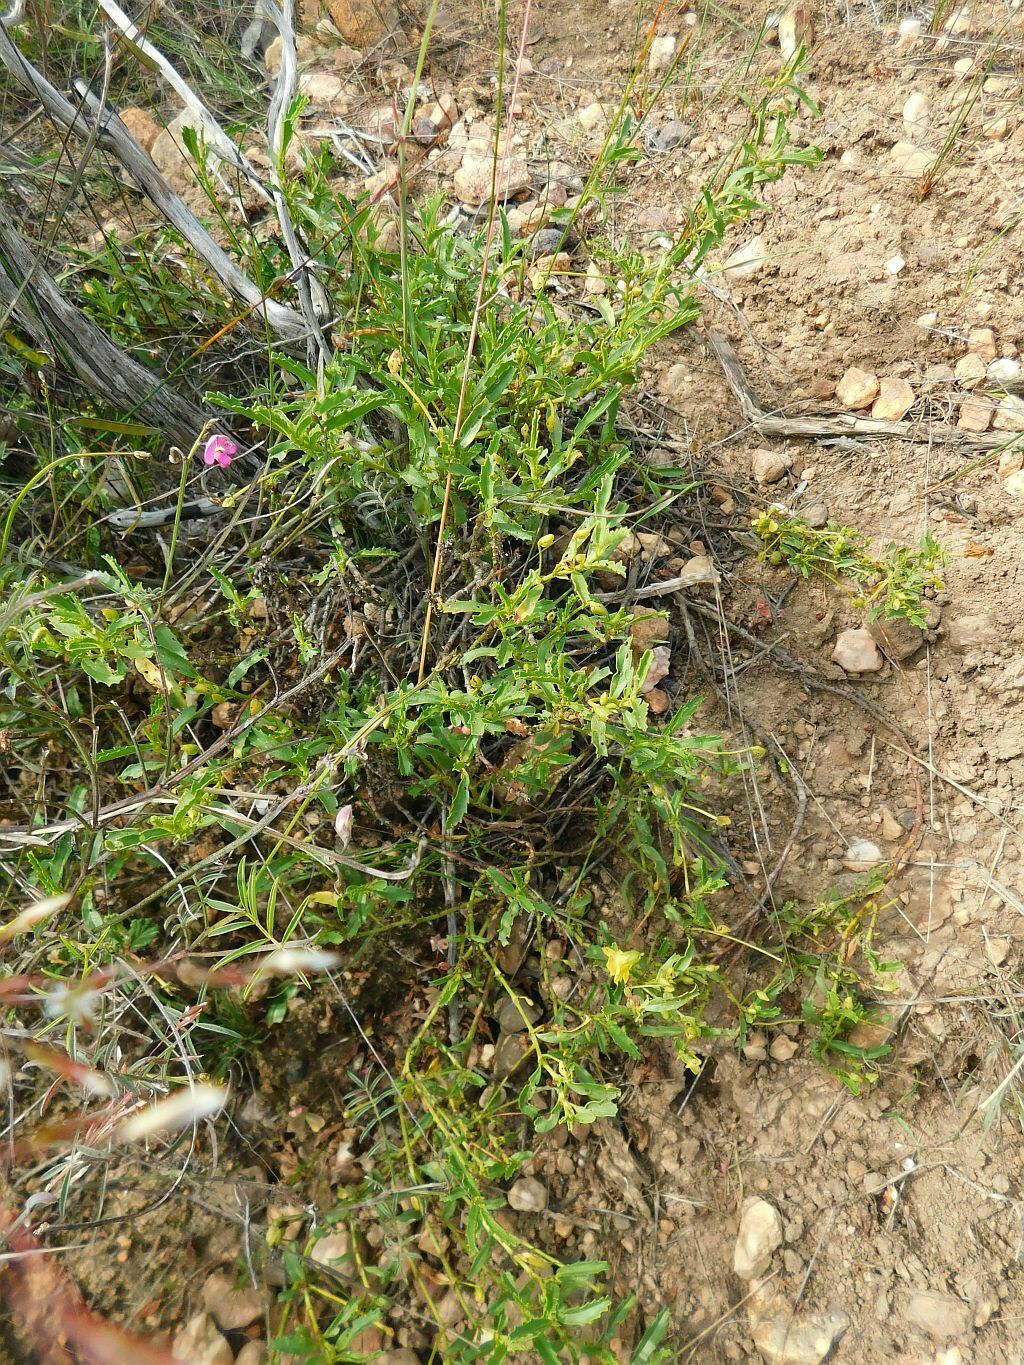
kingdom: Plantae
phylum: Tracheophyta
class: Magnoliopsida
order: Malvales
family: Malvaceae
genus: Hermannia
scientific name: Hermannia saccifera
